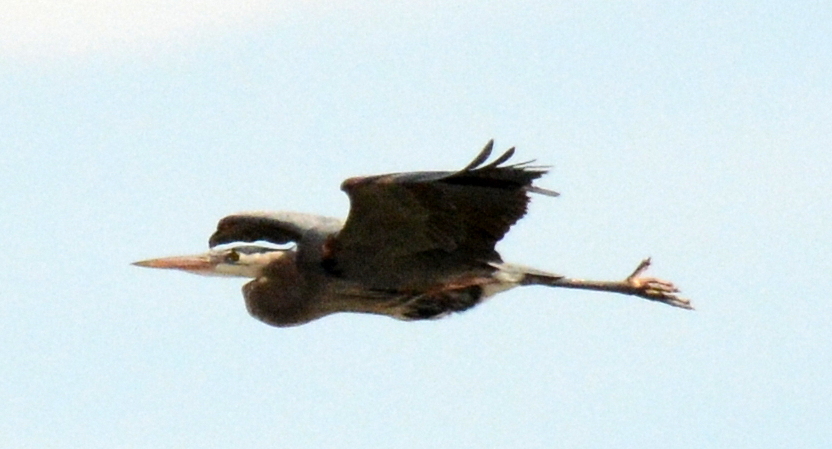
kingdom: Animalia
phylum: Chordata
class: Aves
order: Pelecaniformes
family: Ardeidae
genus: Ardea
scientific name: Ardea herodias
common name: Great blue heron
